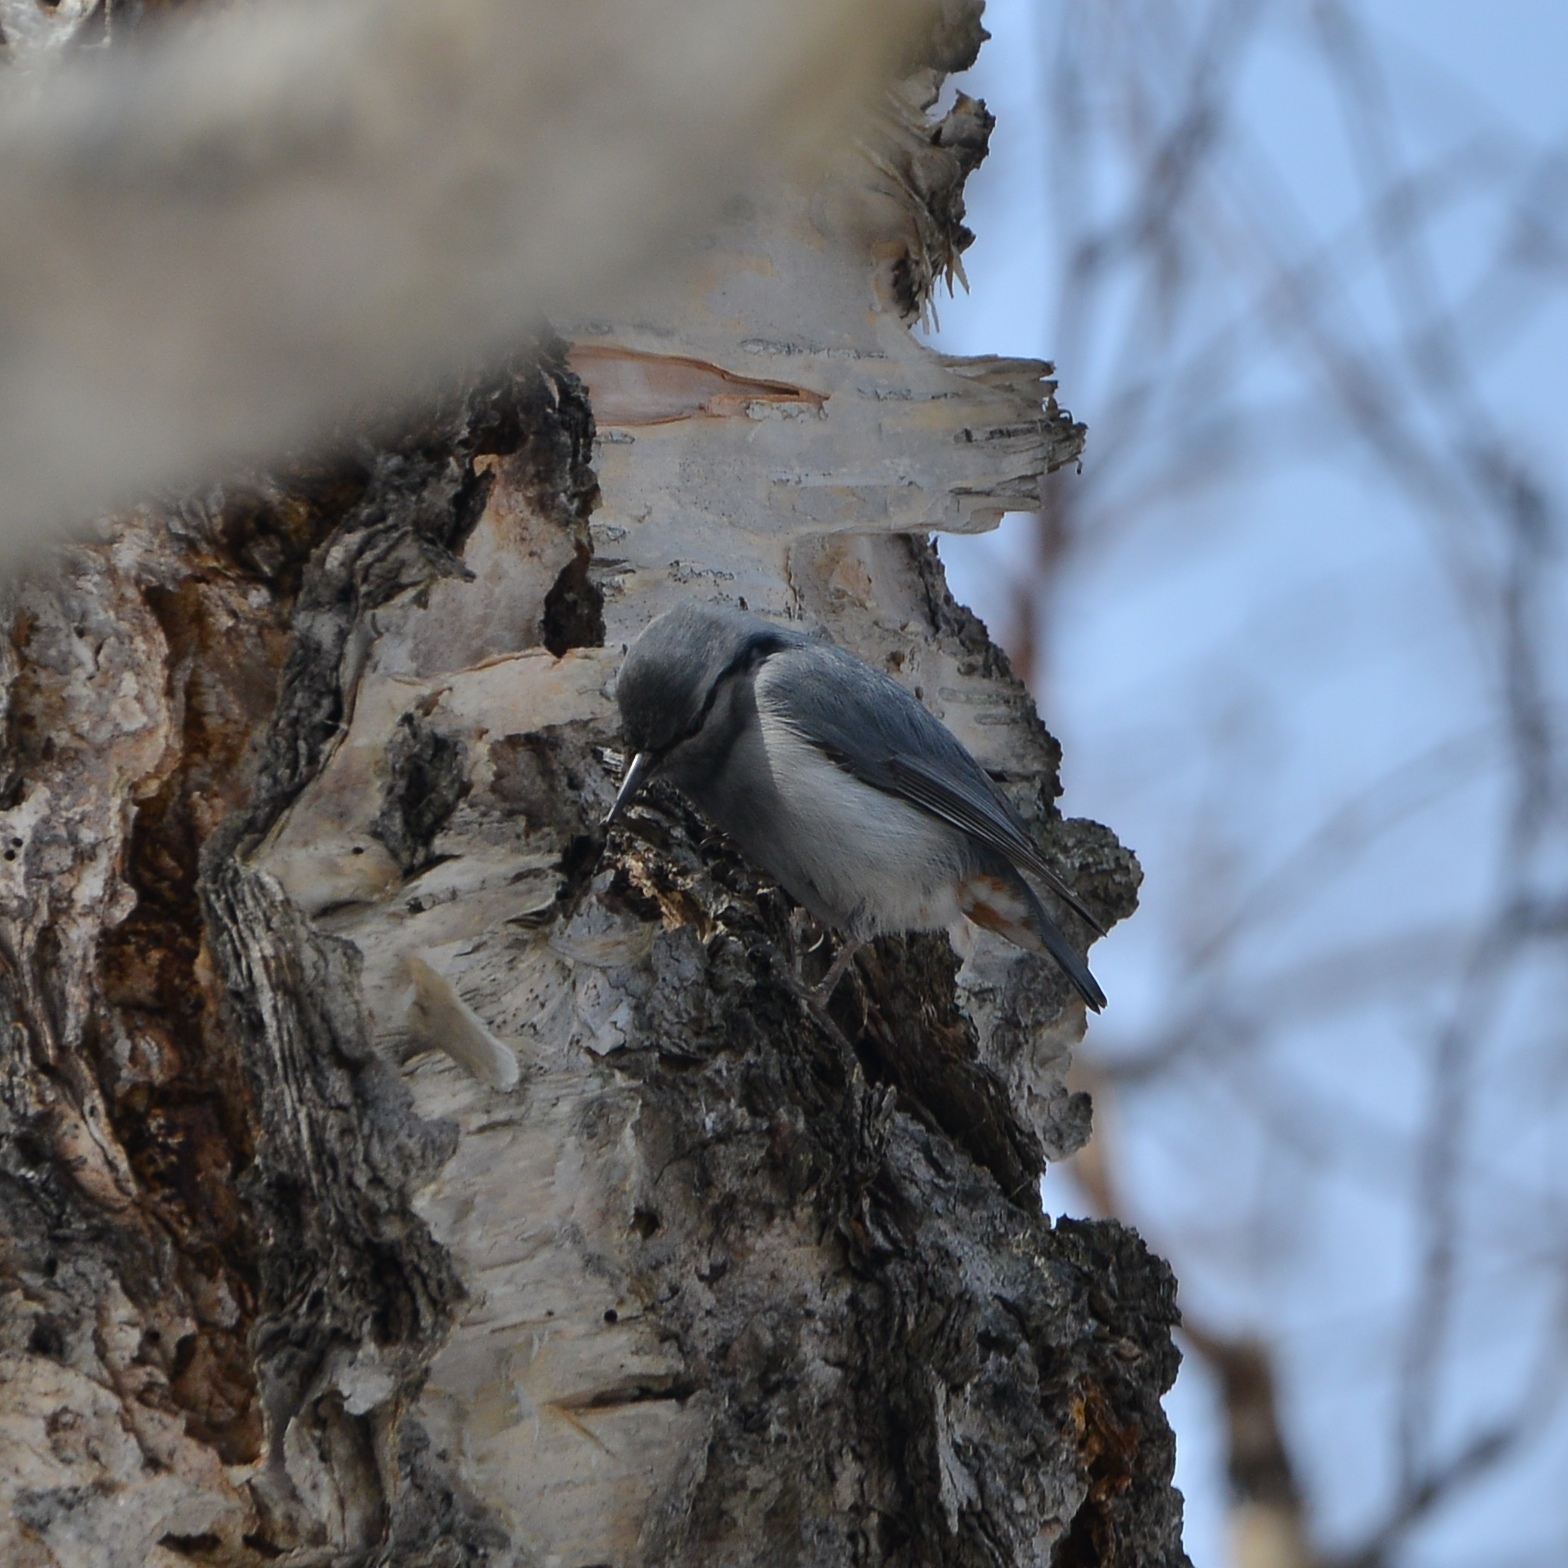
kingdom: Animalia
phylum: Chordata
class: Aves
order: Passeriformes
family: Sittidae
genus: Sitta
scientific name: Sitta europaea
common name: Eurasian nuthatch
